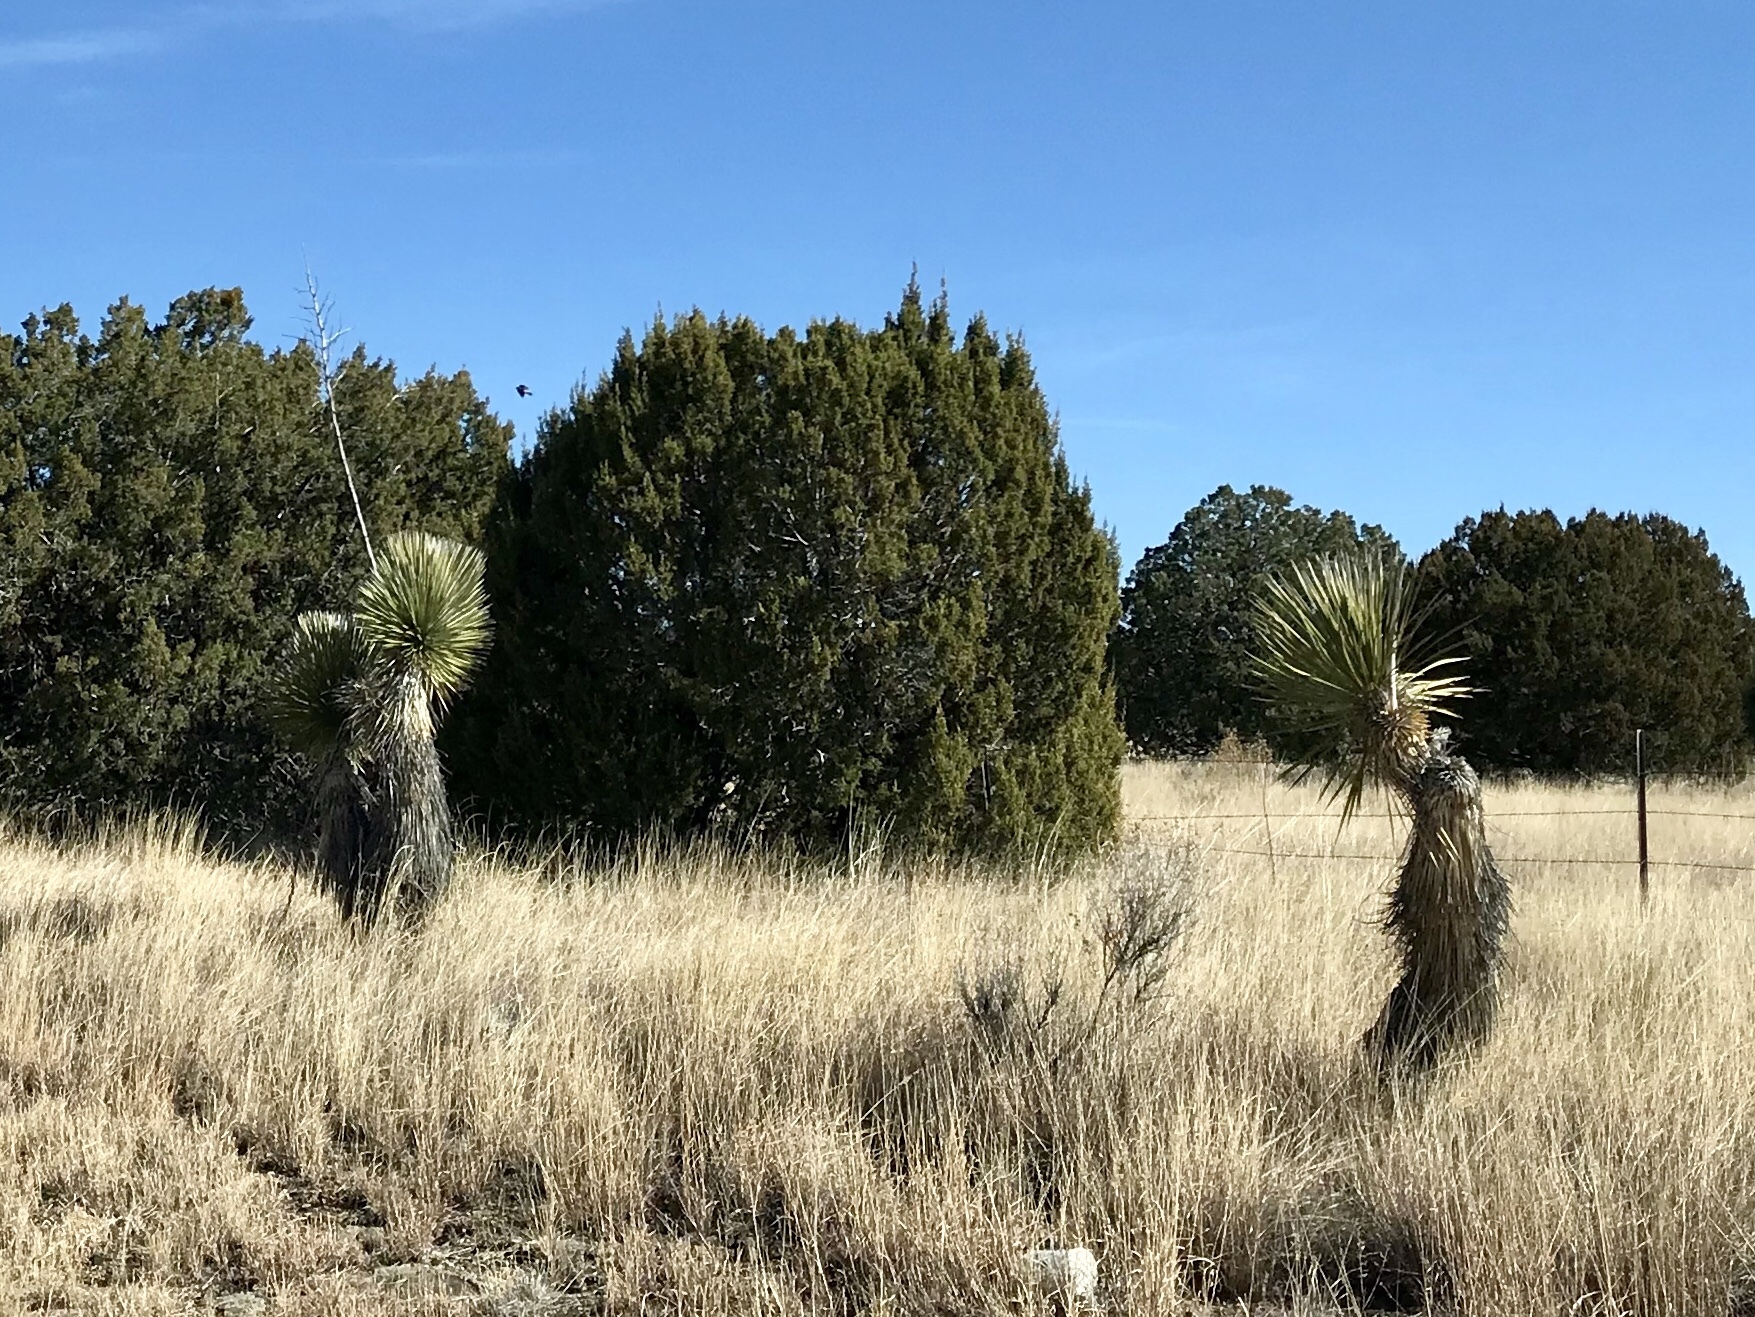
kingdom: Plantae
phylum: Tracheophyta
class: Liliopsida
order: Asparagales
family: Asparagaceae
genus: Yucca
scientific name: Yucca elata
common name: Palmella
